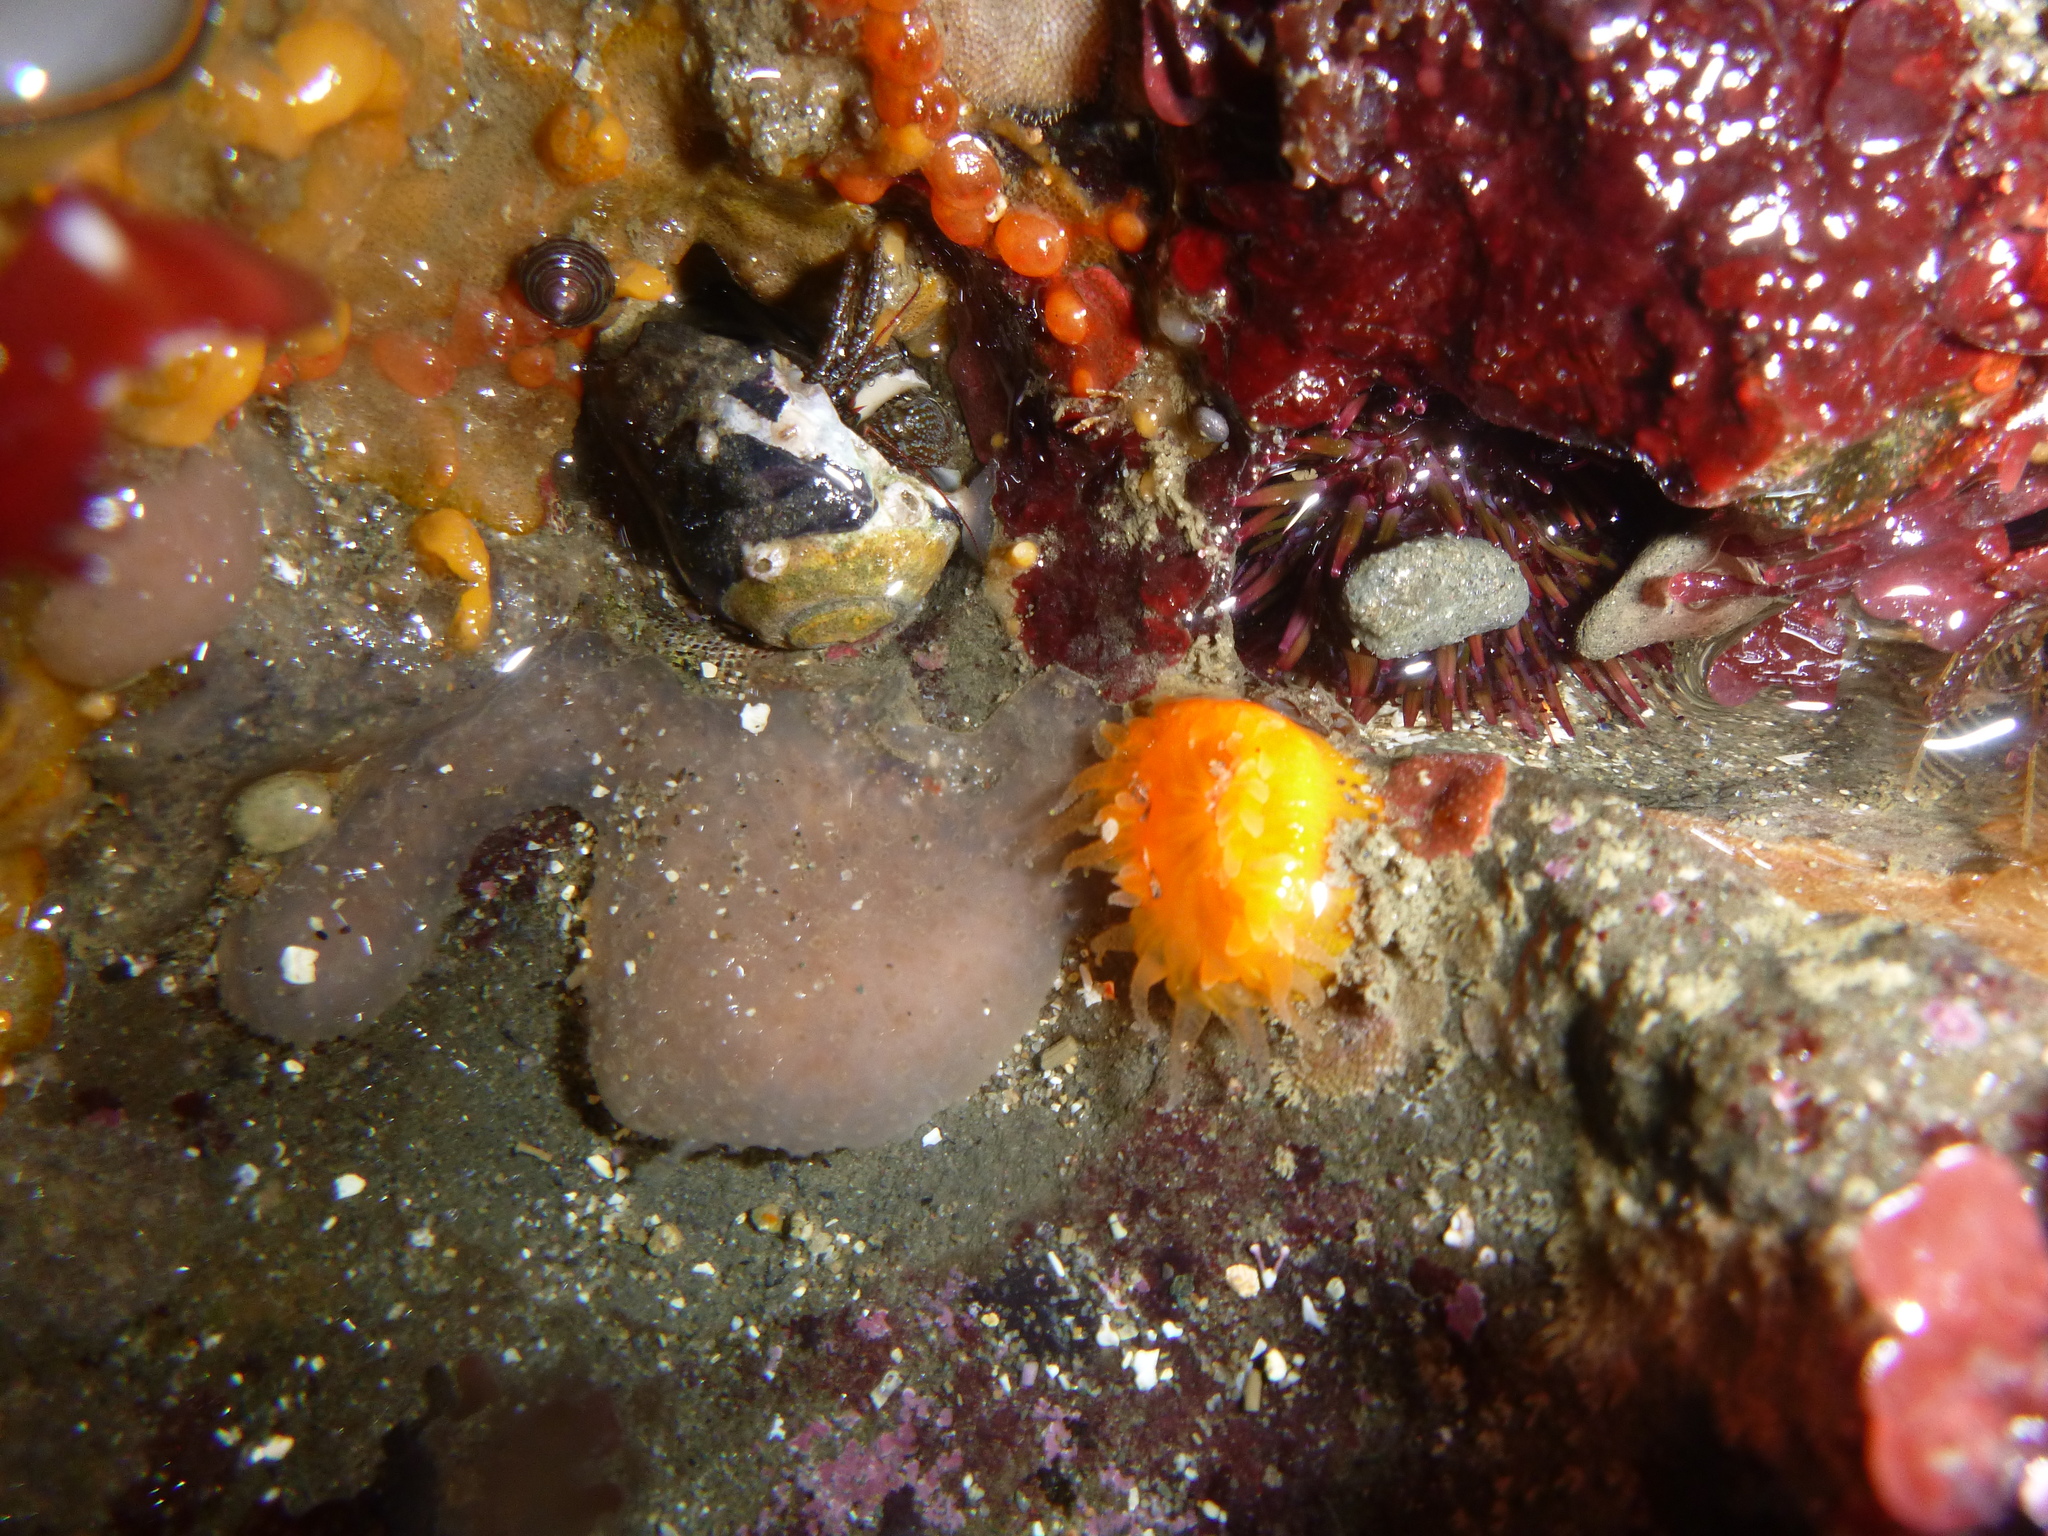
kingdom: Animalia
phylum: Cnidaria
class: Anthozoa
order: Scleractinia
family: Dendrophylliidae
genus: Balanophyllia
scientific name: Balanophyllia elegans
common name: Orange stony coral
